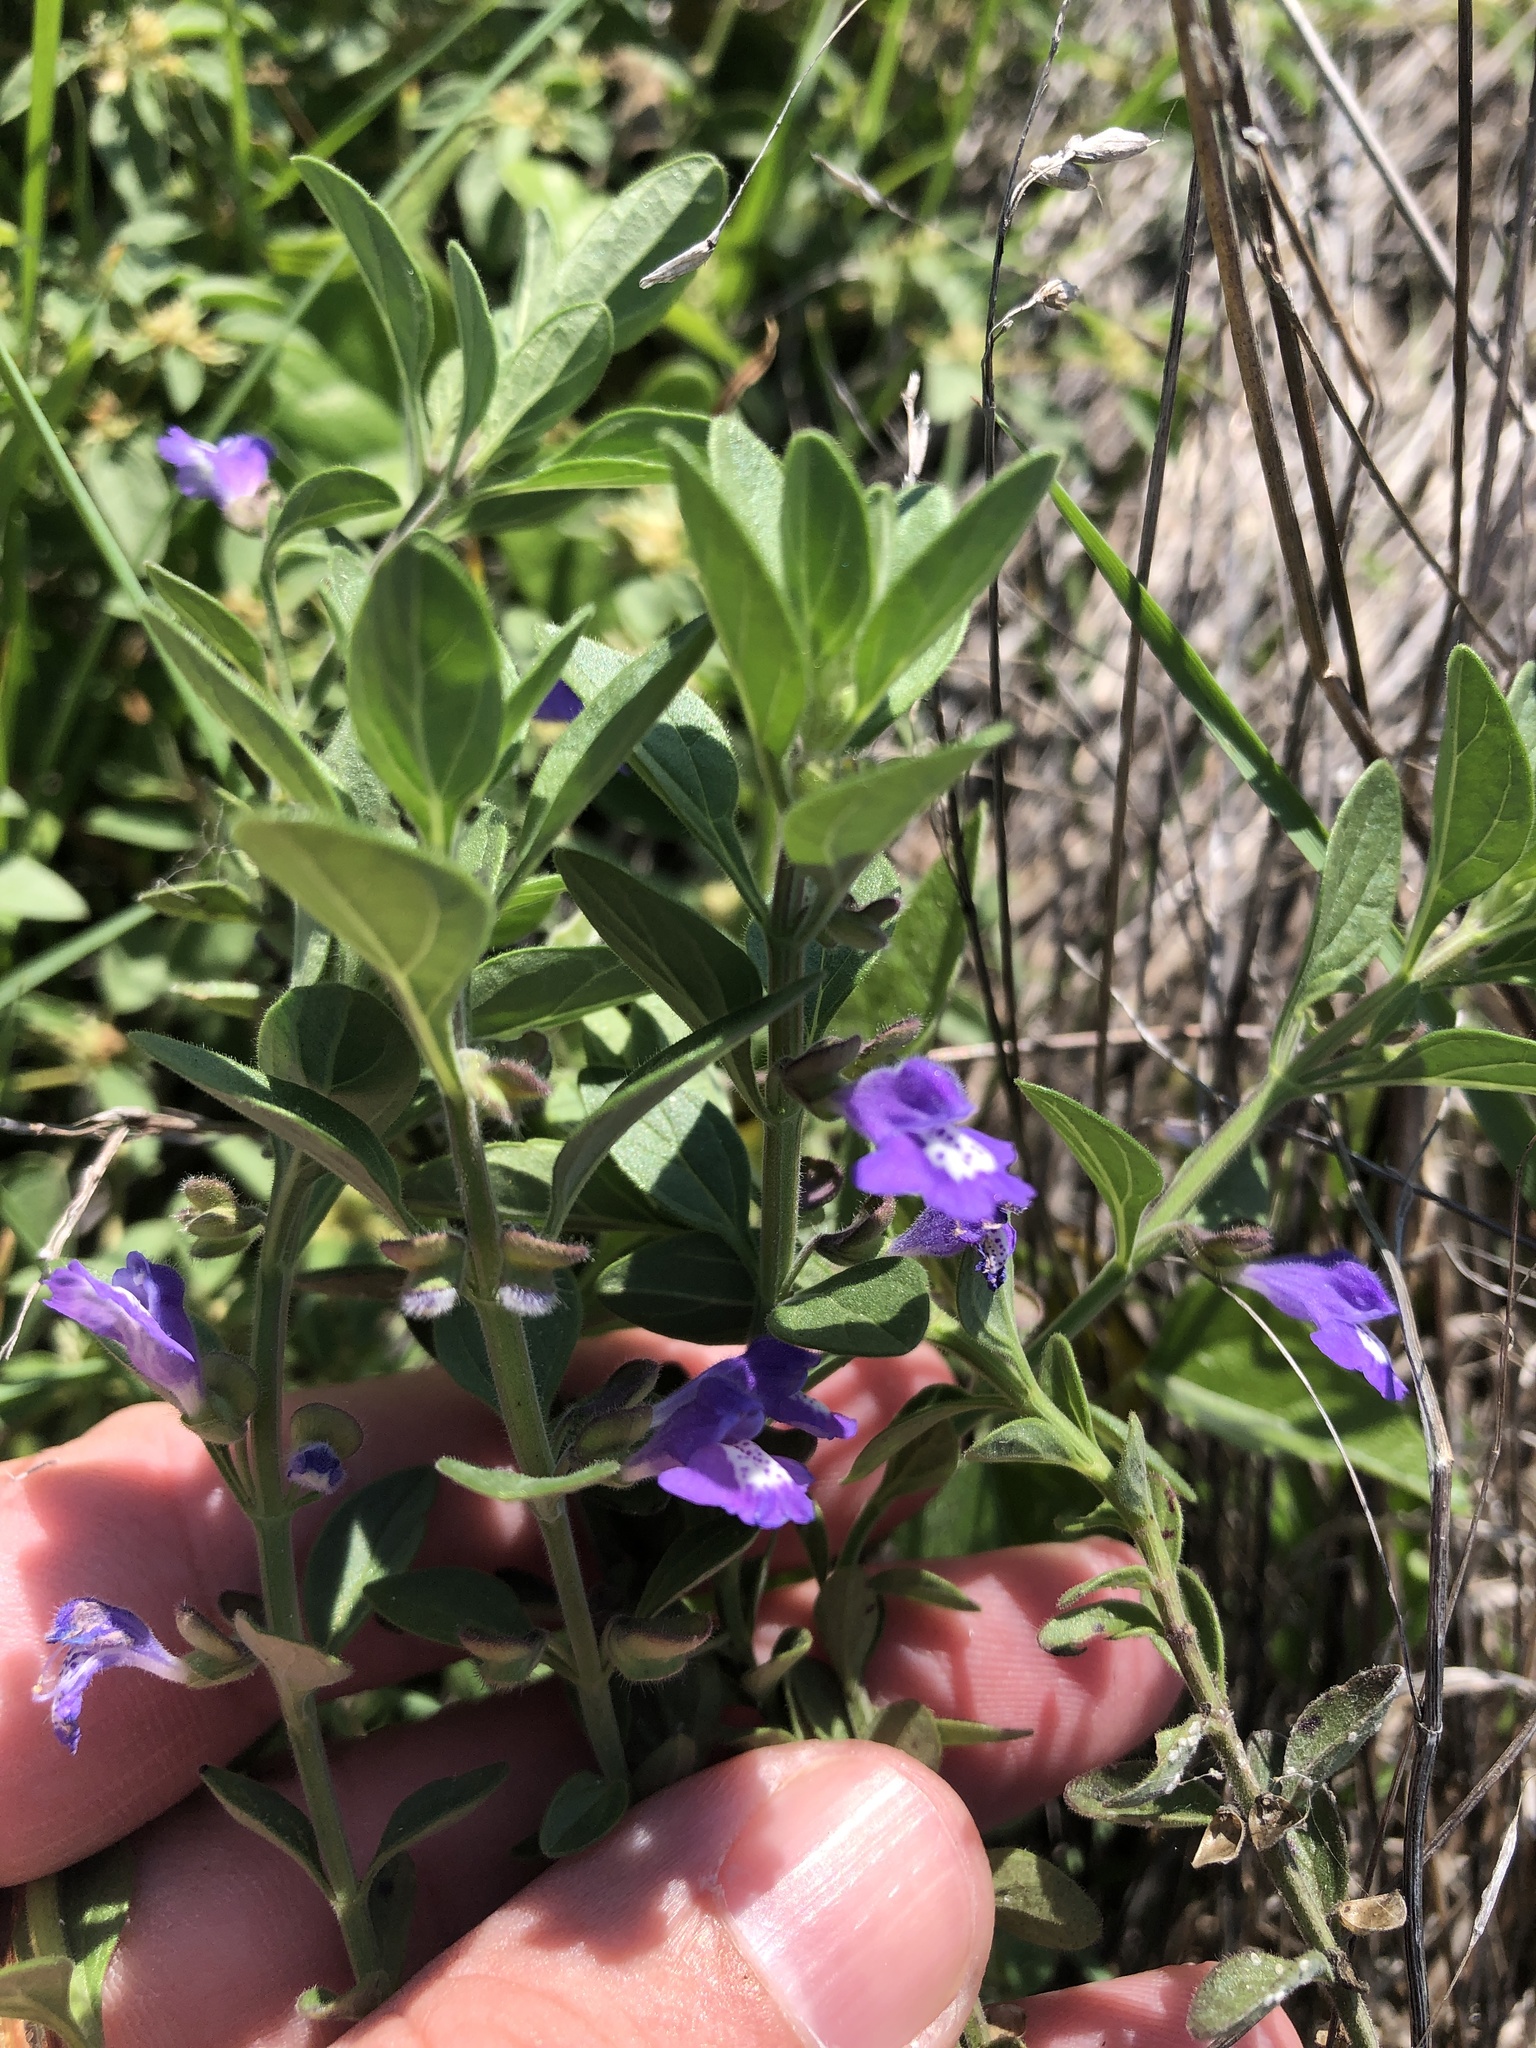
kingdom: Plantae
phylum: Tracheophyta
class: Magnoliopsida
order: Lamiales
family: Lamiaceae
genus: Scutellaria
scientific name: Scutellaria drummondii
